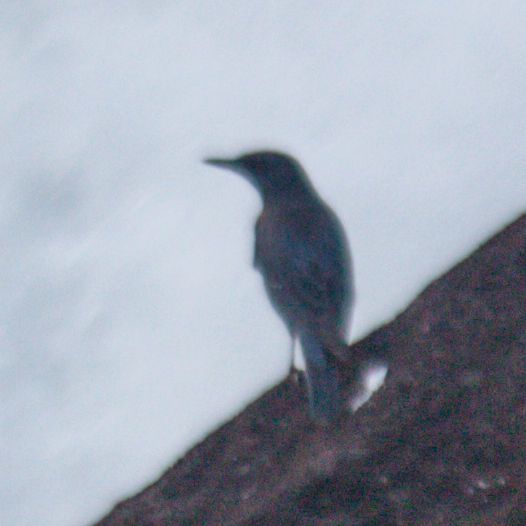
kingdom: Animalia
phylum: Chordata
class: Aves
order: Passeriformes
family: Muscicapidae
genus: Monticola
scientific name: Monticola solitarius
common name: Blue rock thrush
